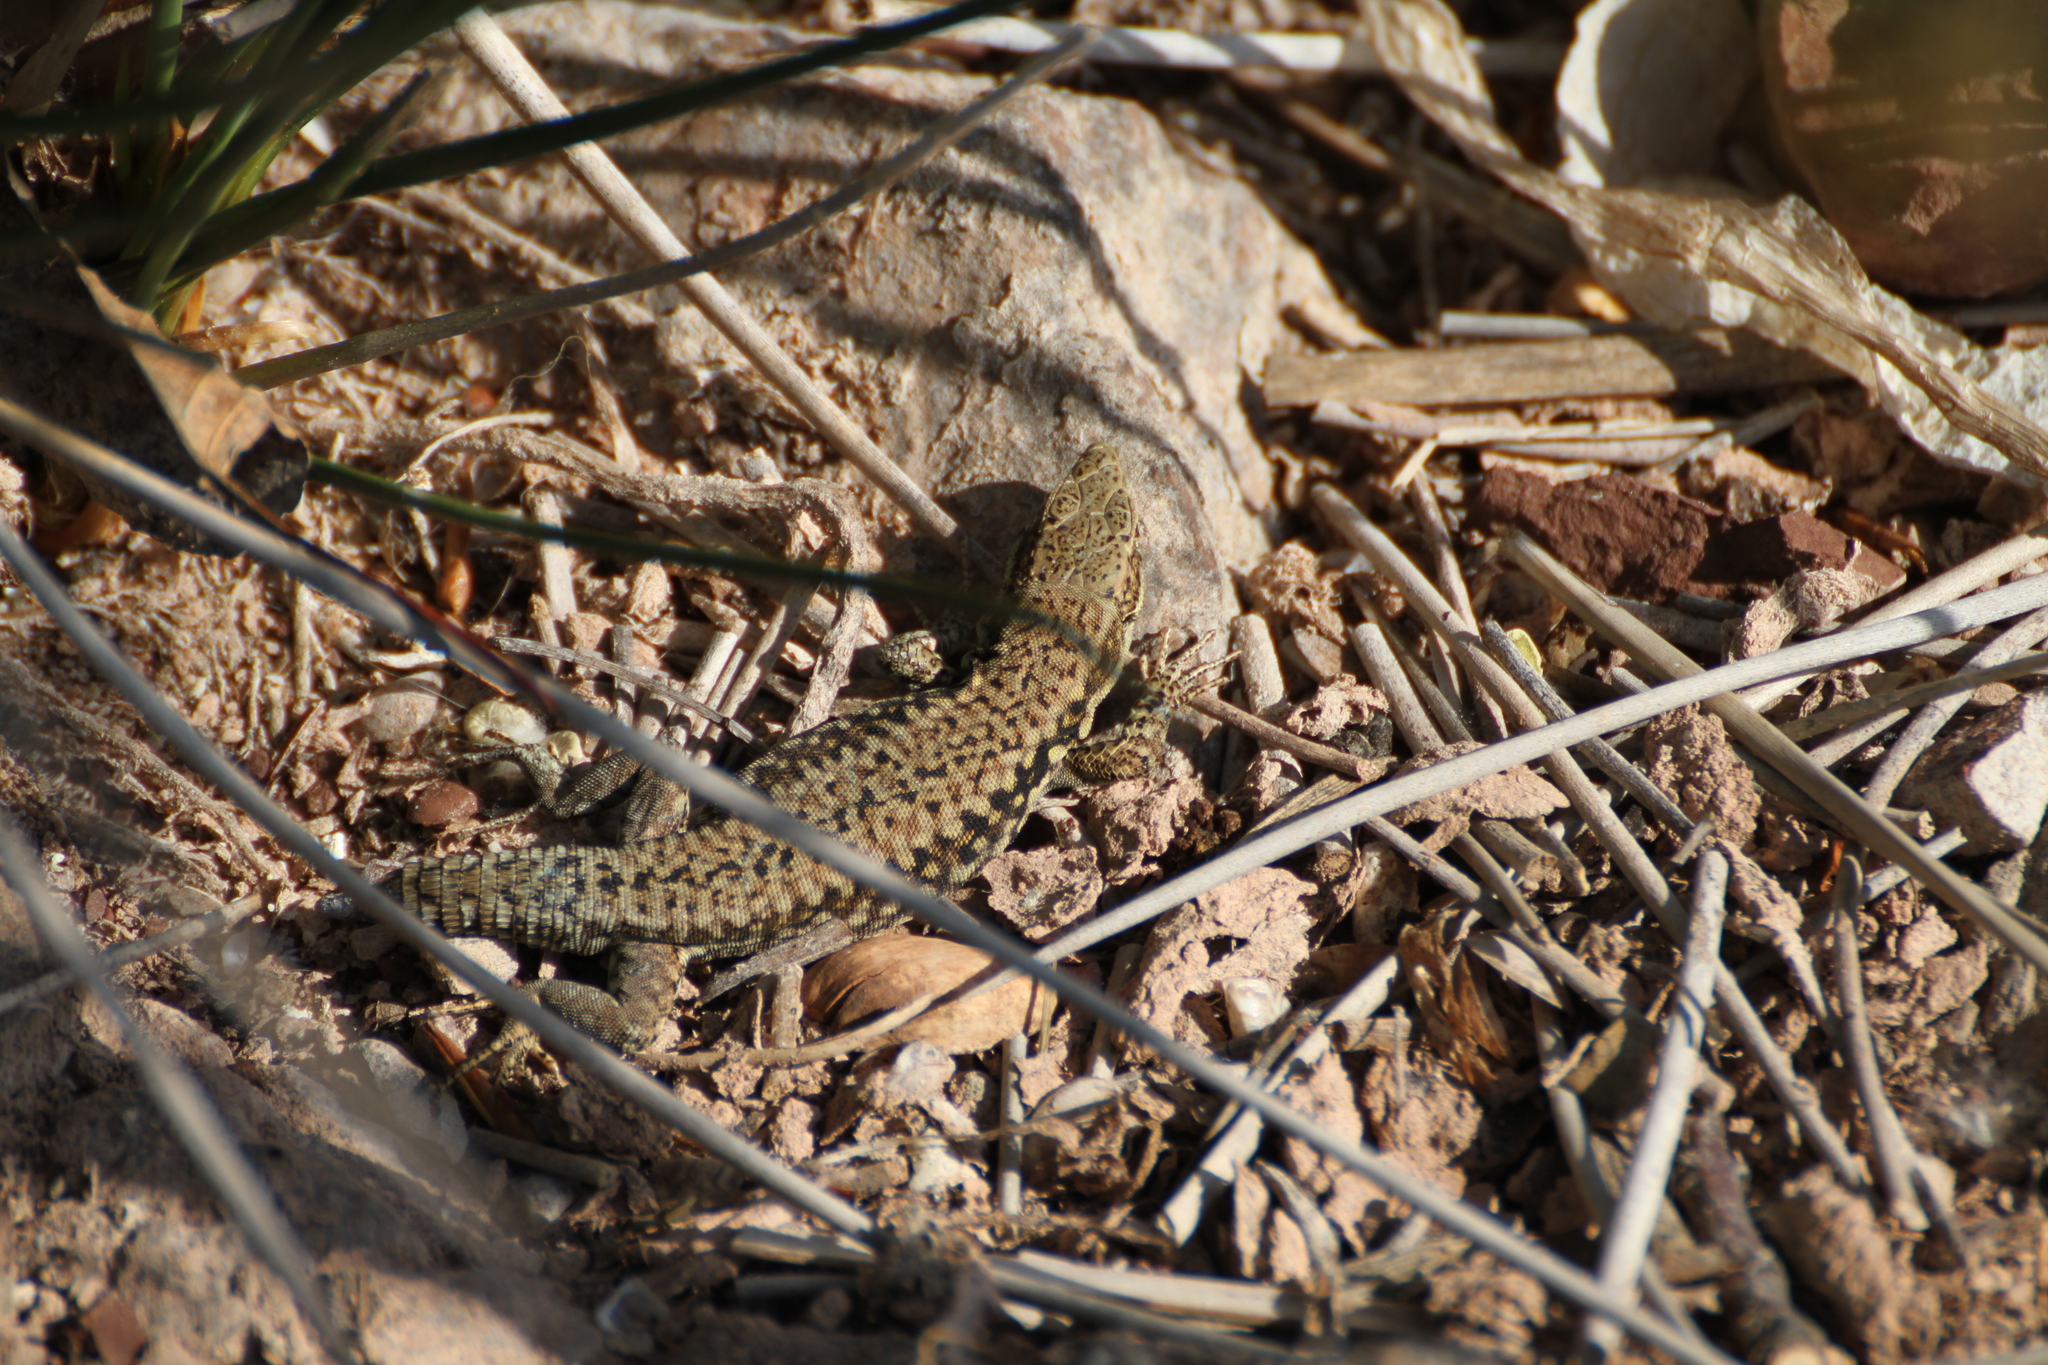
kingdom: Animalia
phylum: Chordata
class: Squamata
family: Lacertidae
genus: Podarcis
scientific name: Podarcis muralis
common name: Common wall lizard
